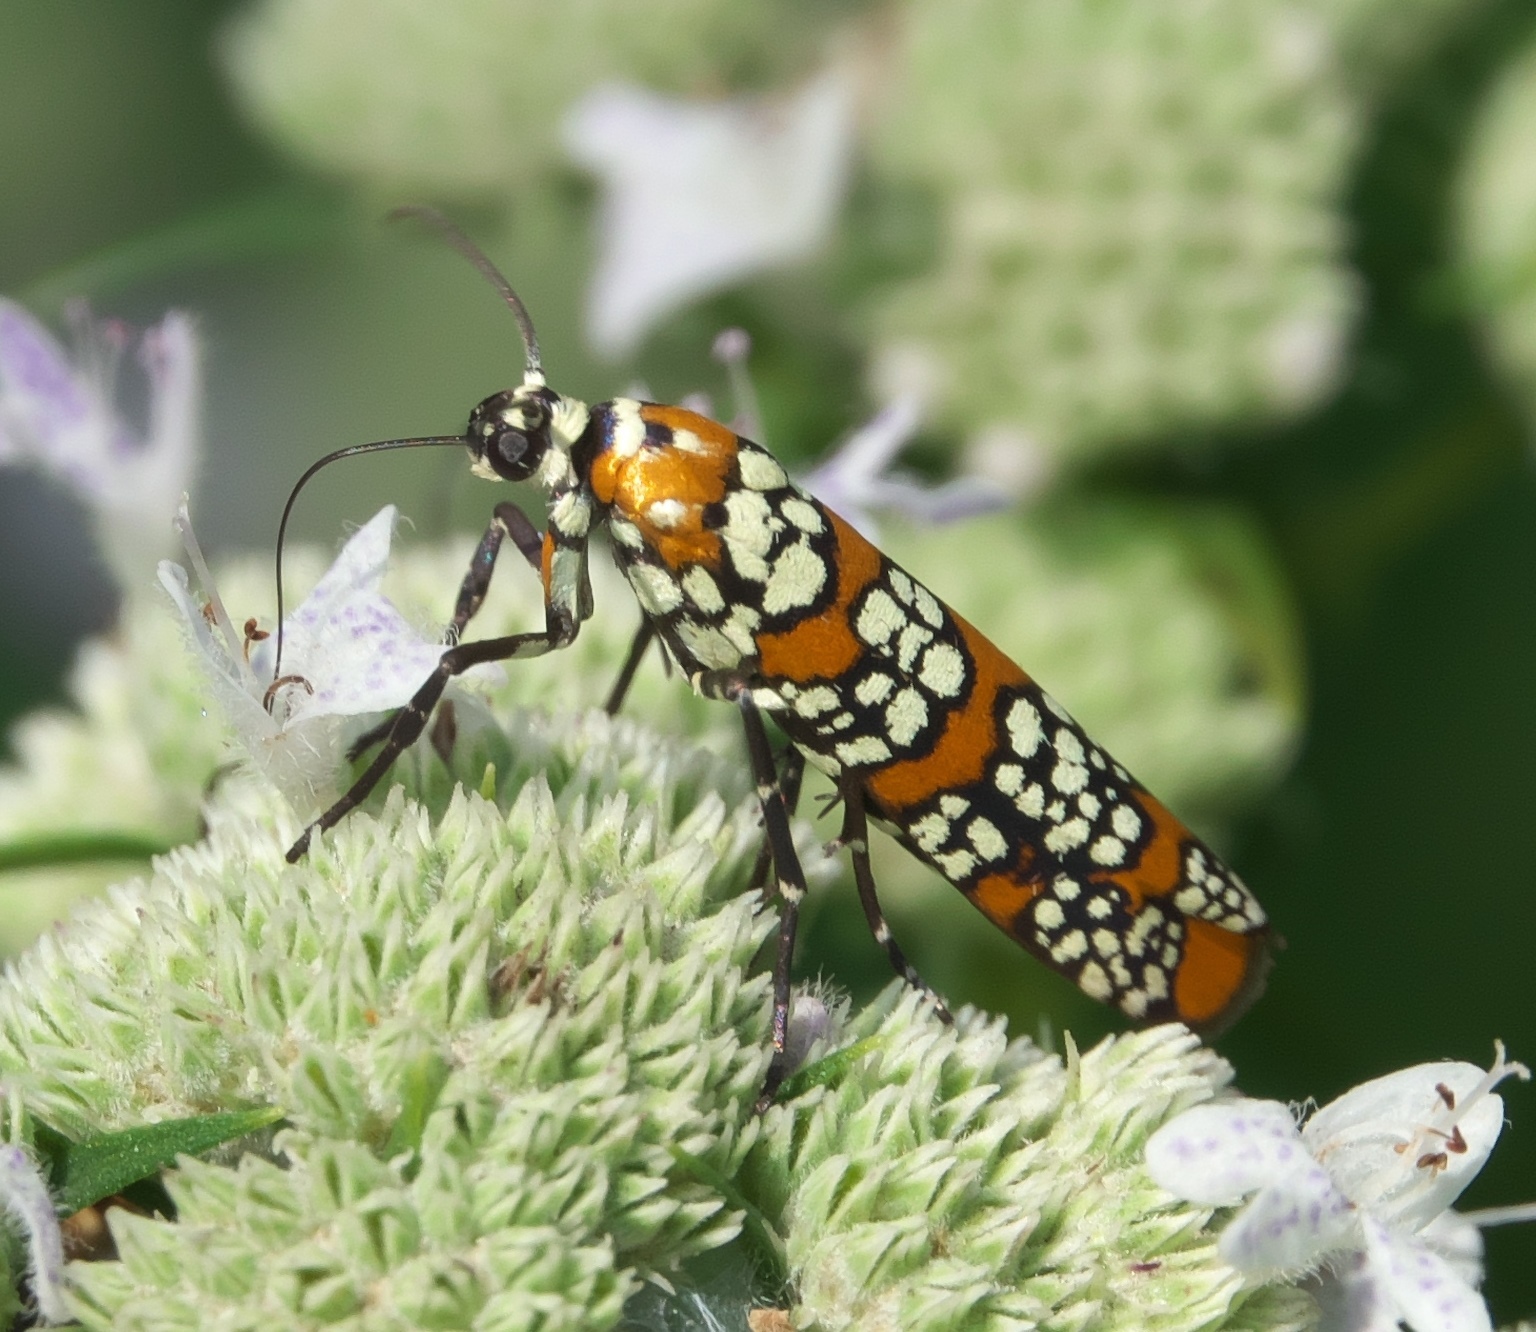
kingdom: Animalia
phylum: Arthropoda
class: Insecta
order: Lepidoptera
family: Attevidae
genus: Atteva
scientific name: Atteva punctella
